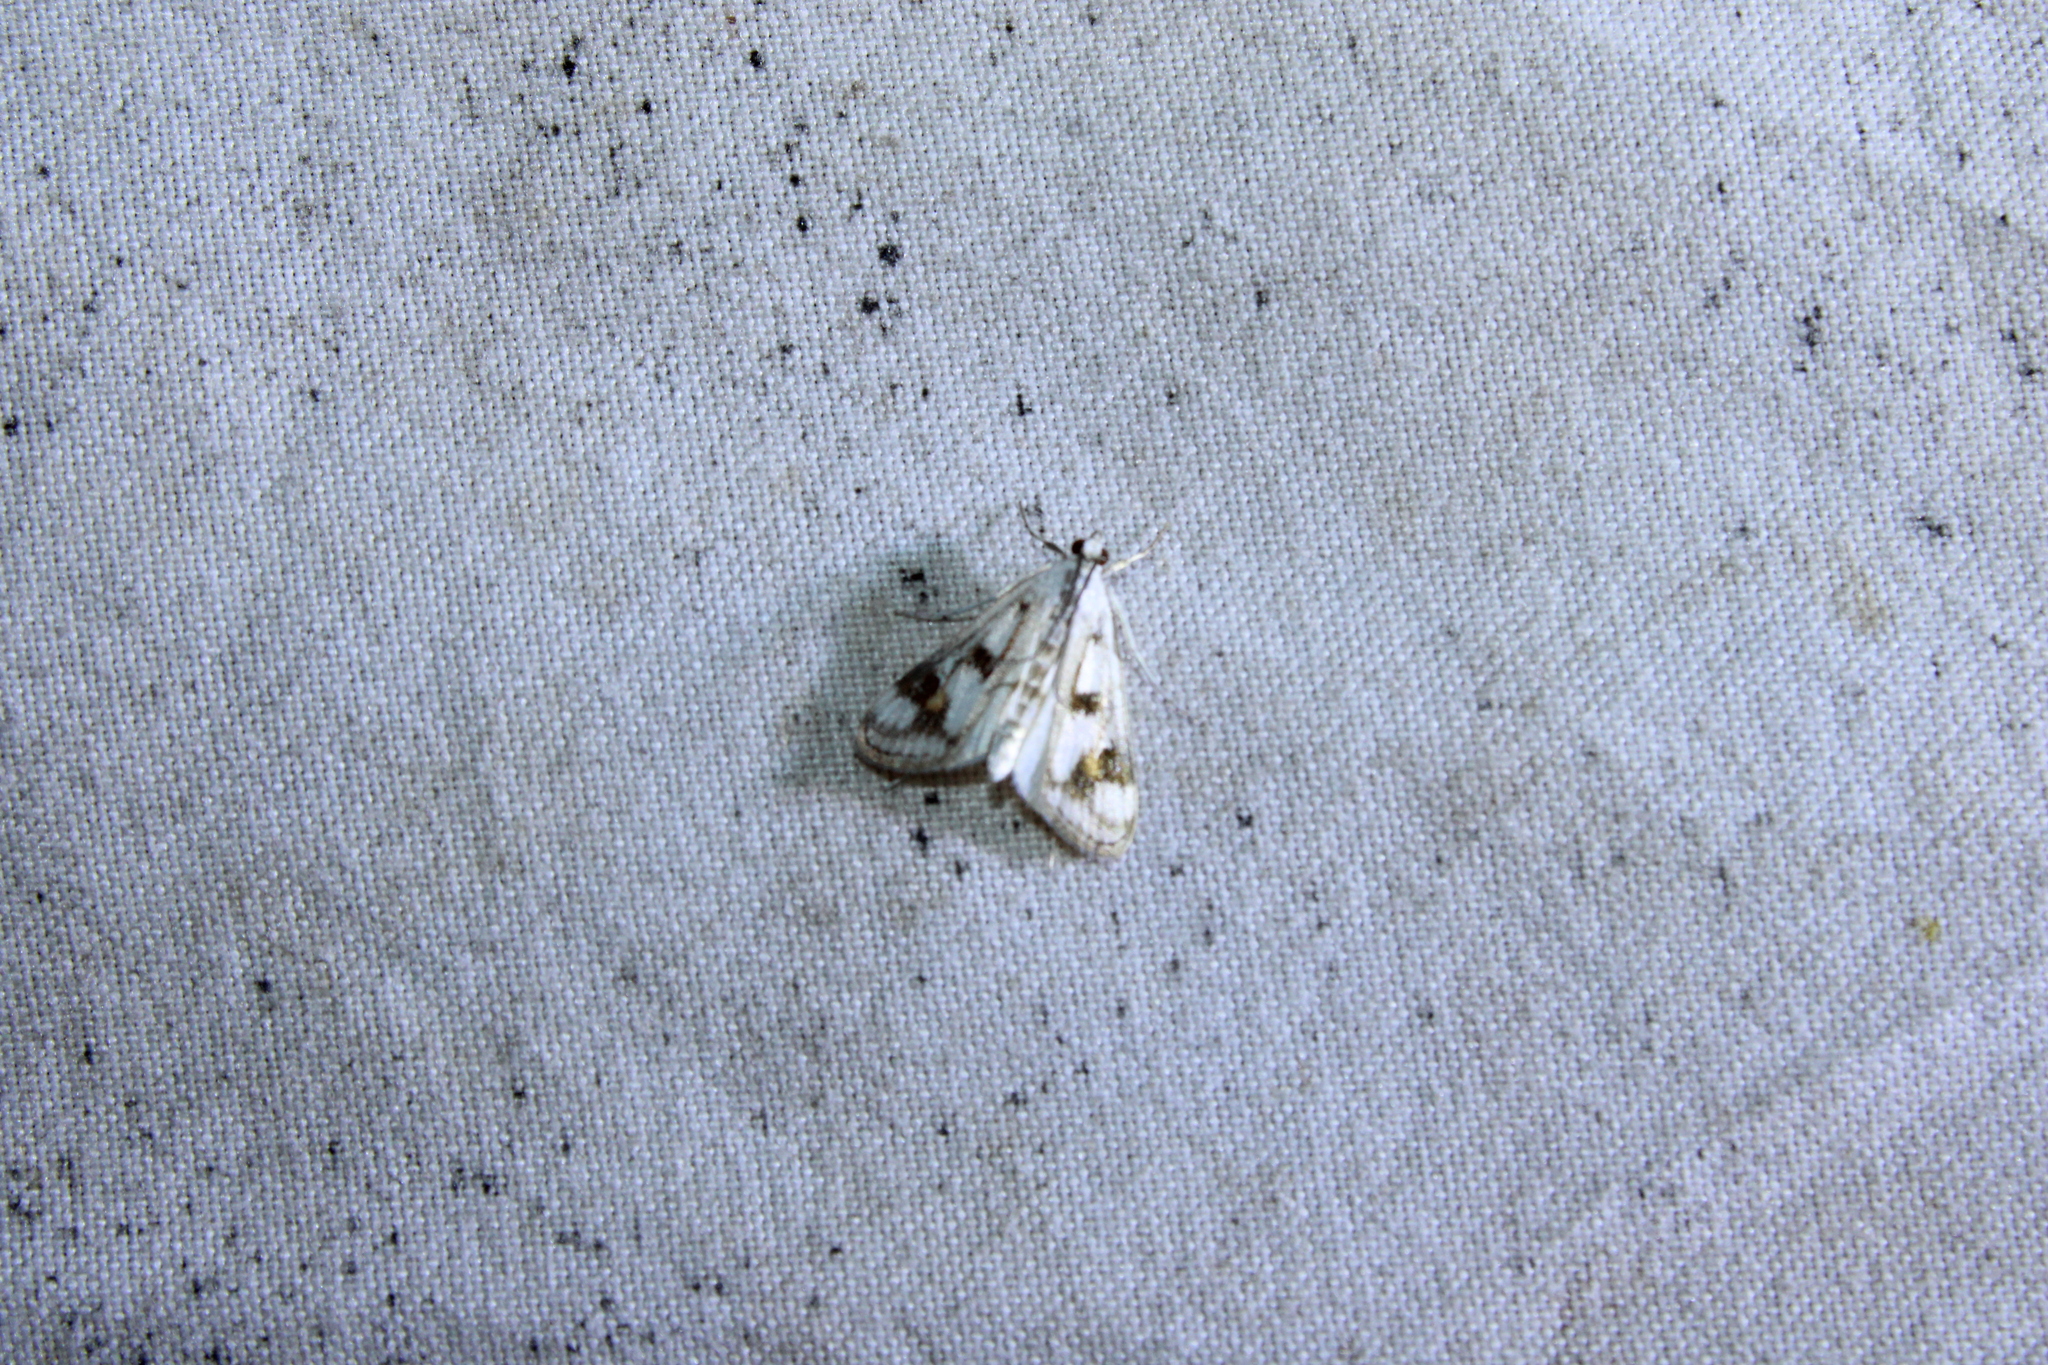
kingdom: Animalia
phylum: Arthropoda
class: Insecta
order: Lepidoptera
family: Crambidae
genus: Parapoynx
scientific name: Parapoynx maculalis
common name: Polymorphic pondweed moth
